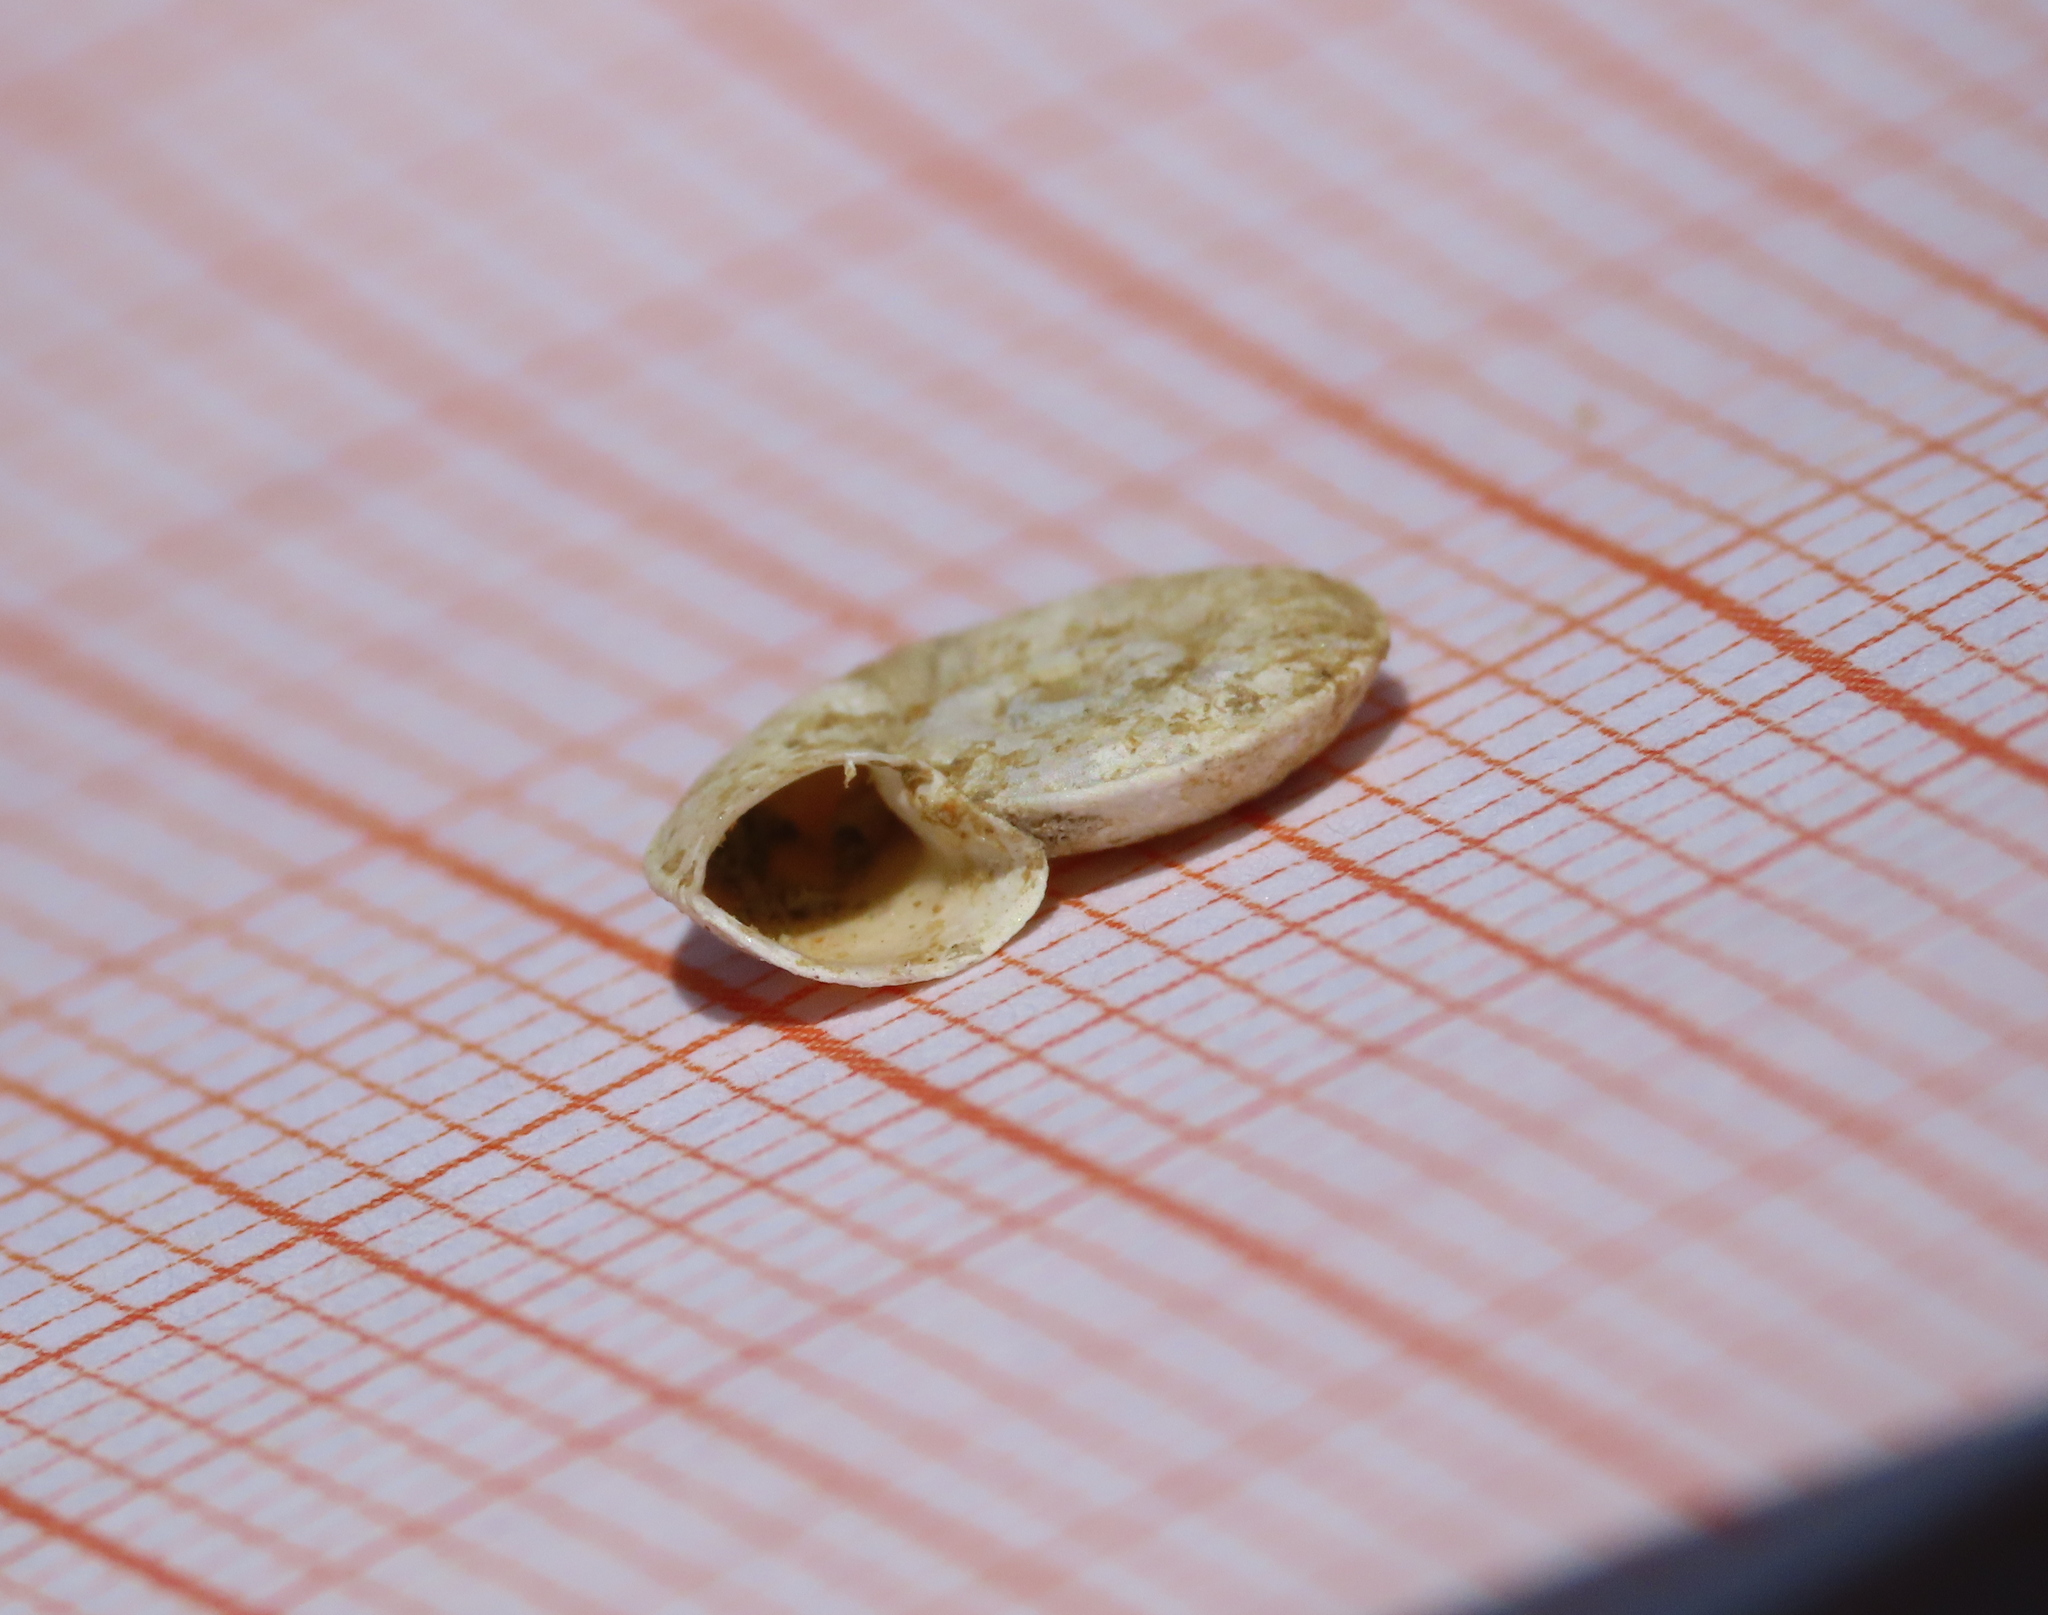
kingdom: Animalia
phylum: Mollusca
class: Gastropoda
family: Planorbidae
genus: Planorbis
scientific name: Planorbis carinatus
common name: Keeled ramshorn
